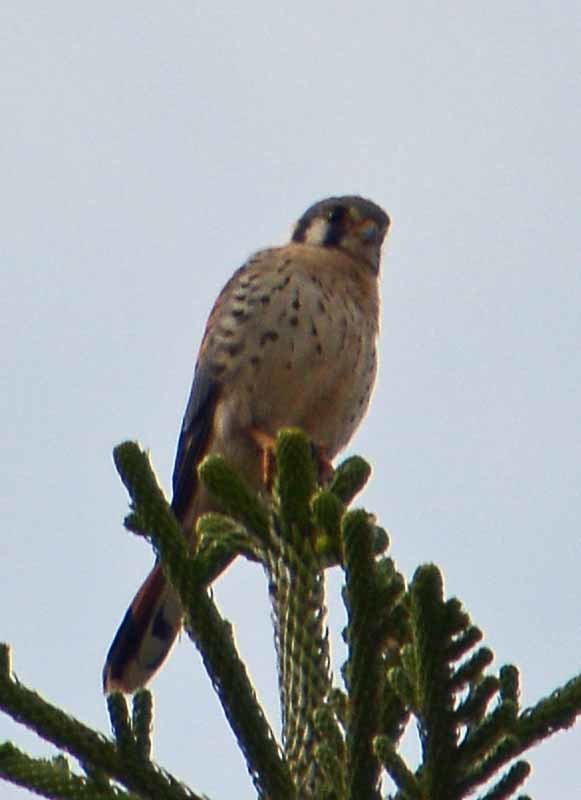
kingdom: Animalia
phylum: Chordata
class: Aves
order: Falconiformes
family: Falconidae
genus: Falco
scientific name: Falco sparverius
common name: American kestrel
